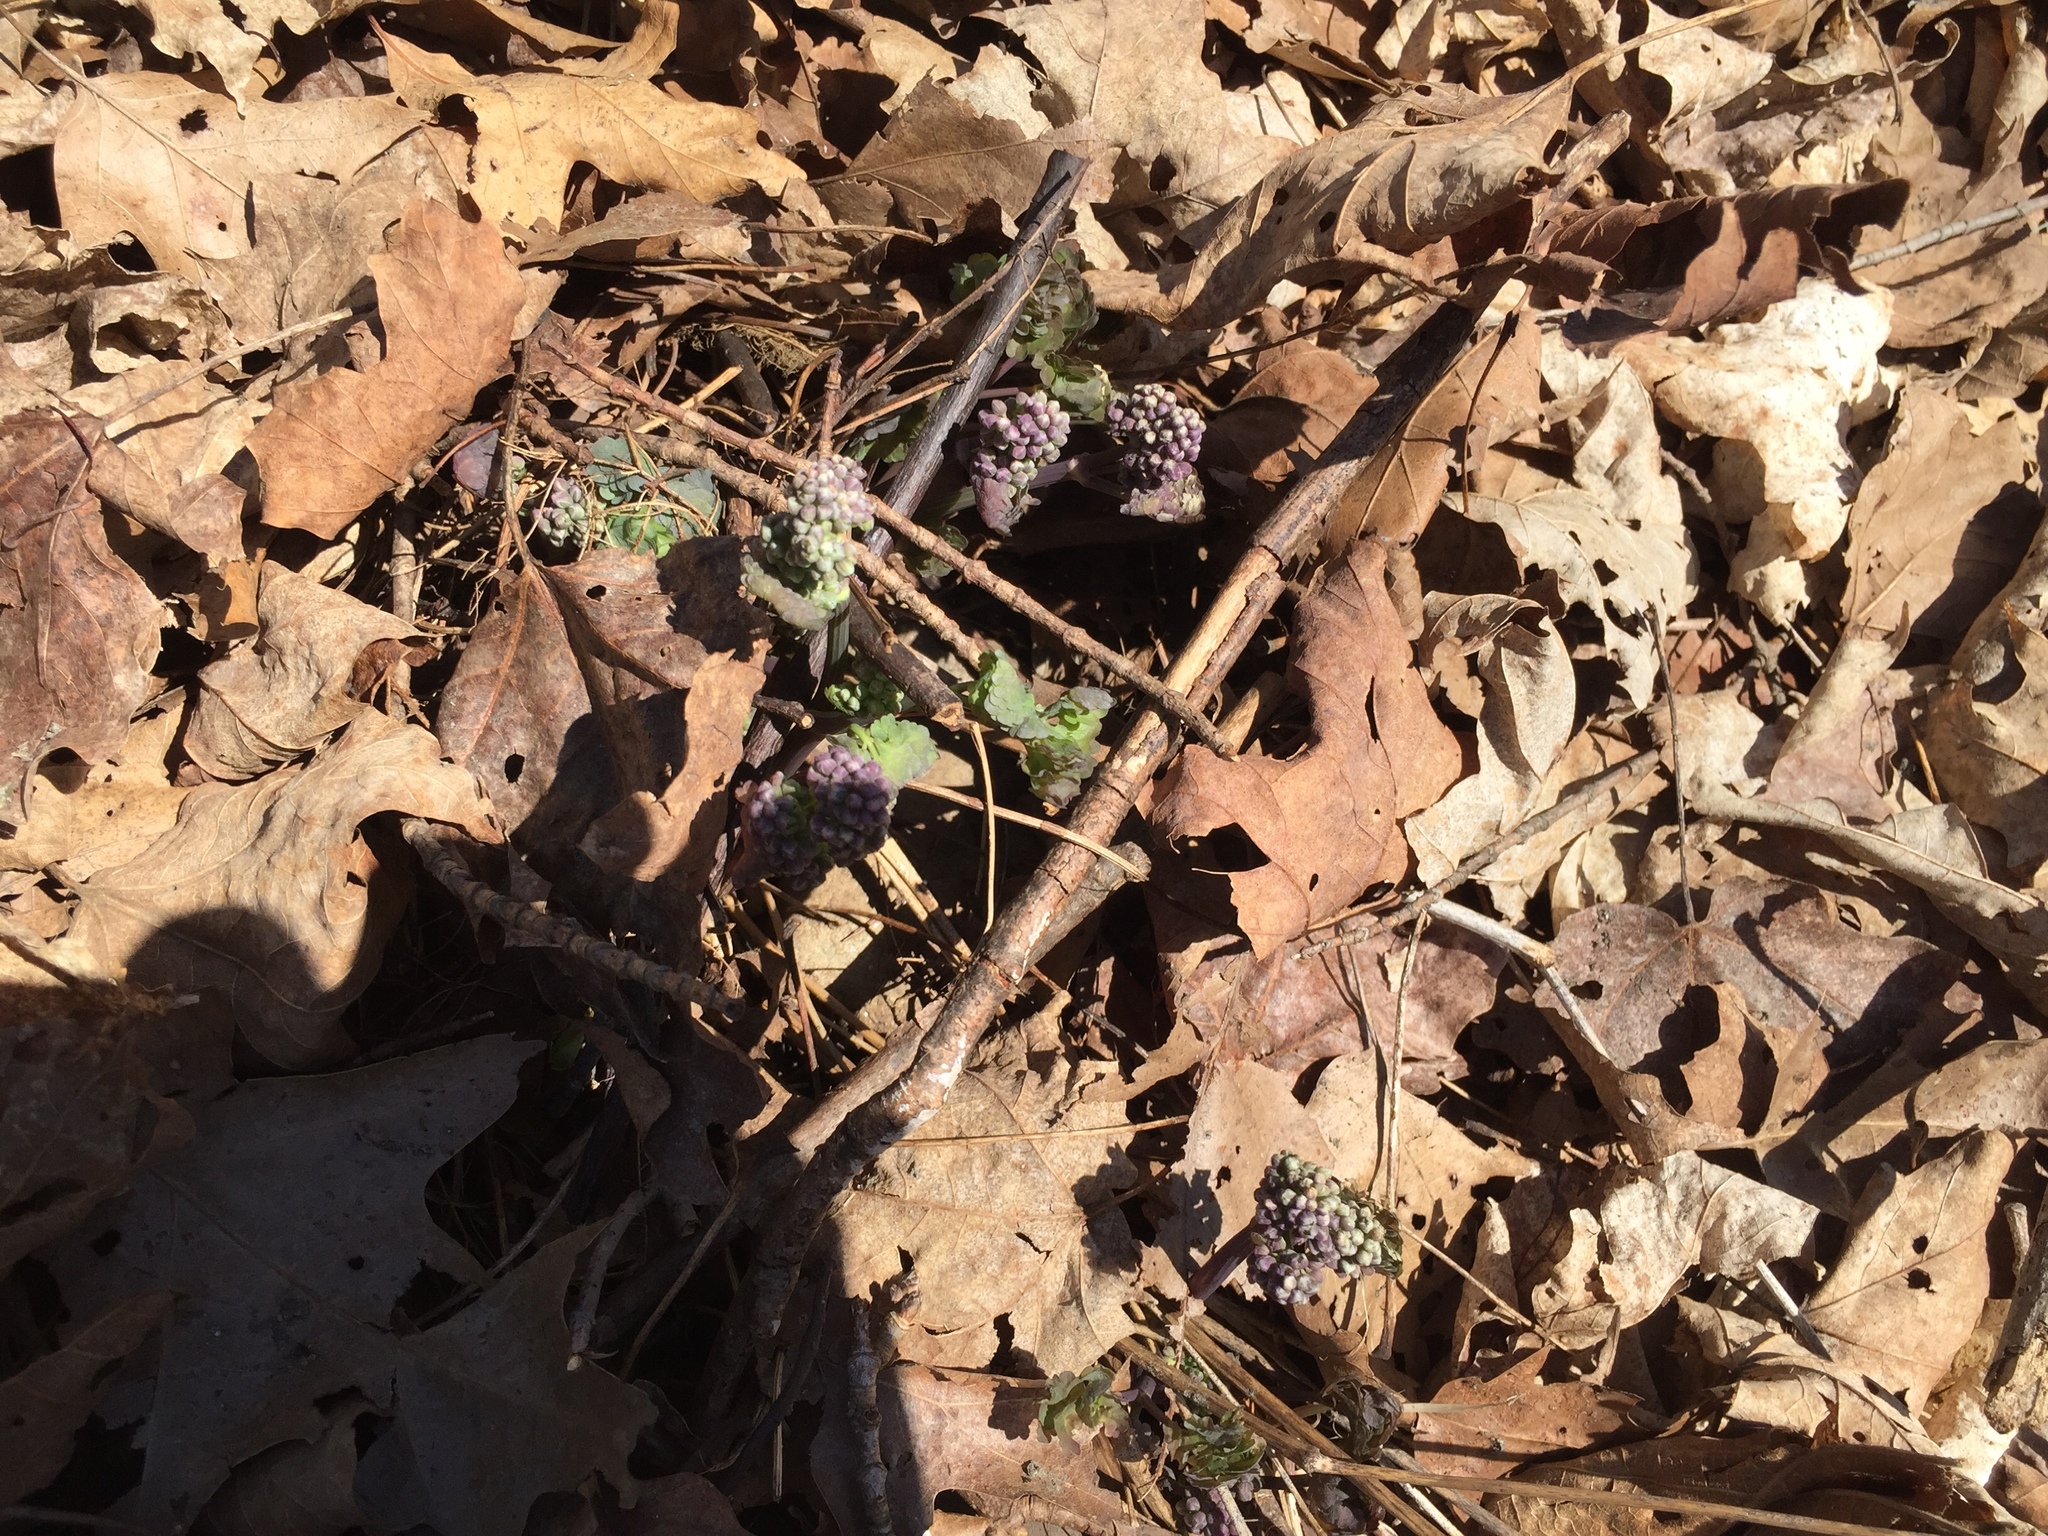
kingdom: Plantae
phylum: Tracheophyta
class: Magnoliopsida
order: Ranunculales
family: Ranunculaceae
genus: Thalictrum
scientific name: Thalictrum dioicum
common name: Early meadow-rue
